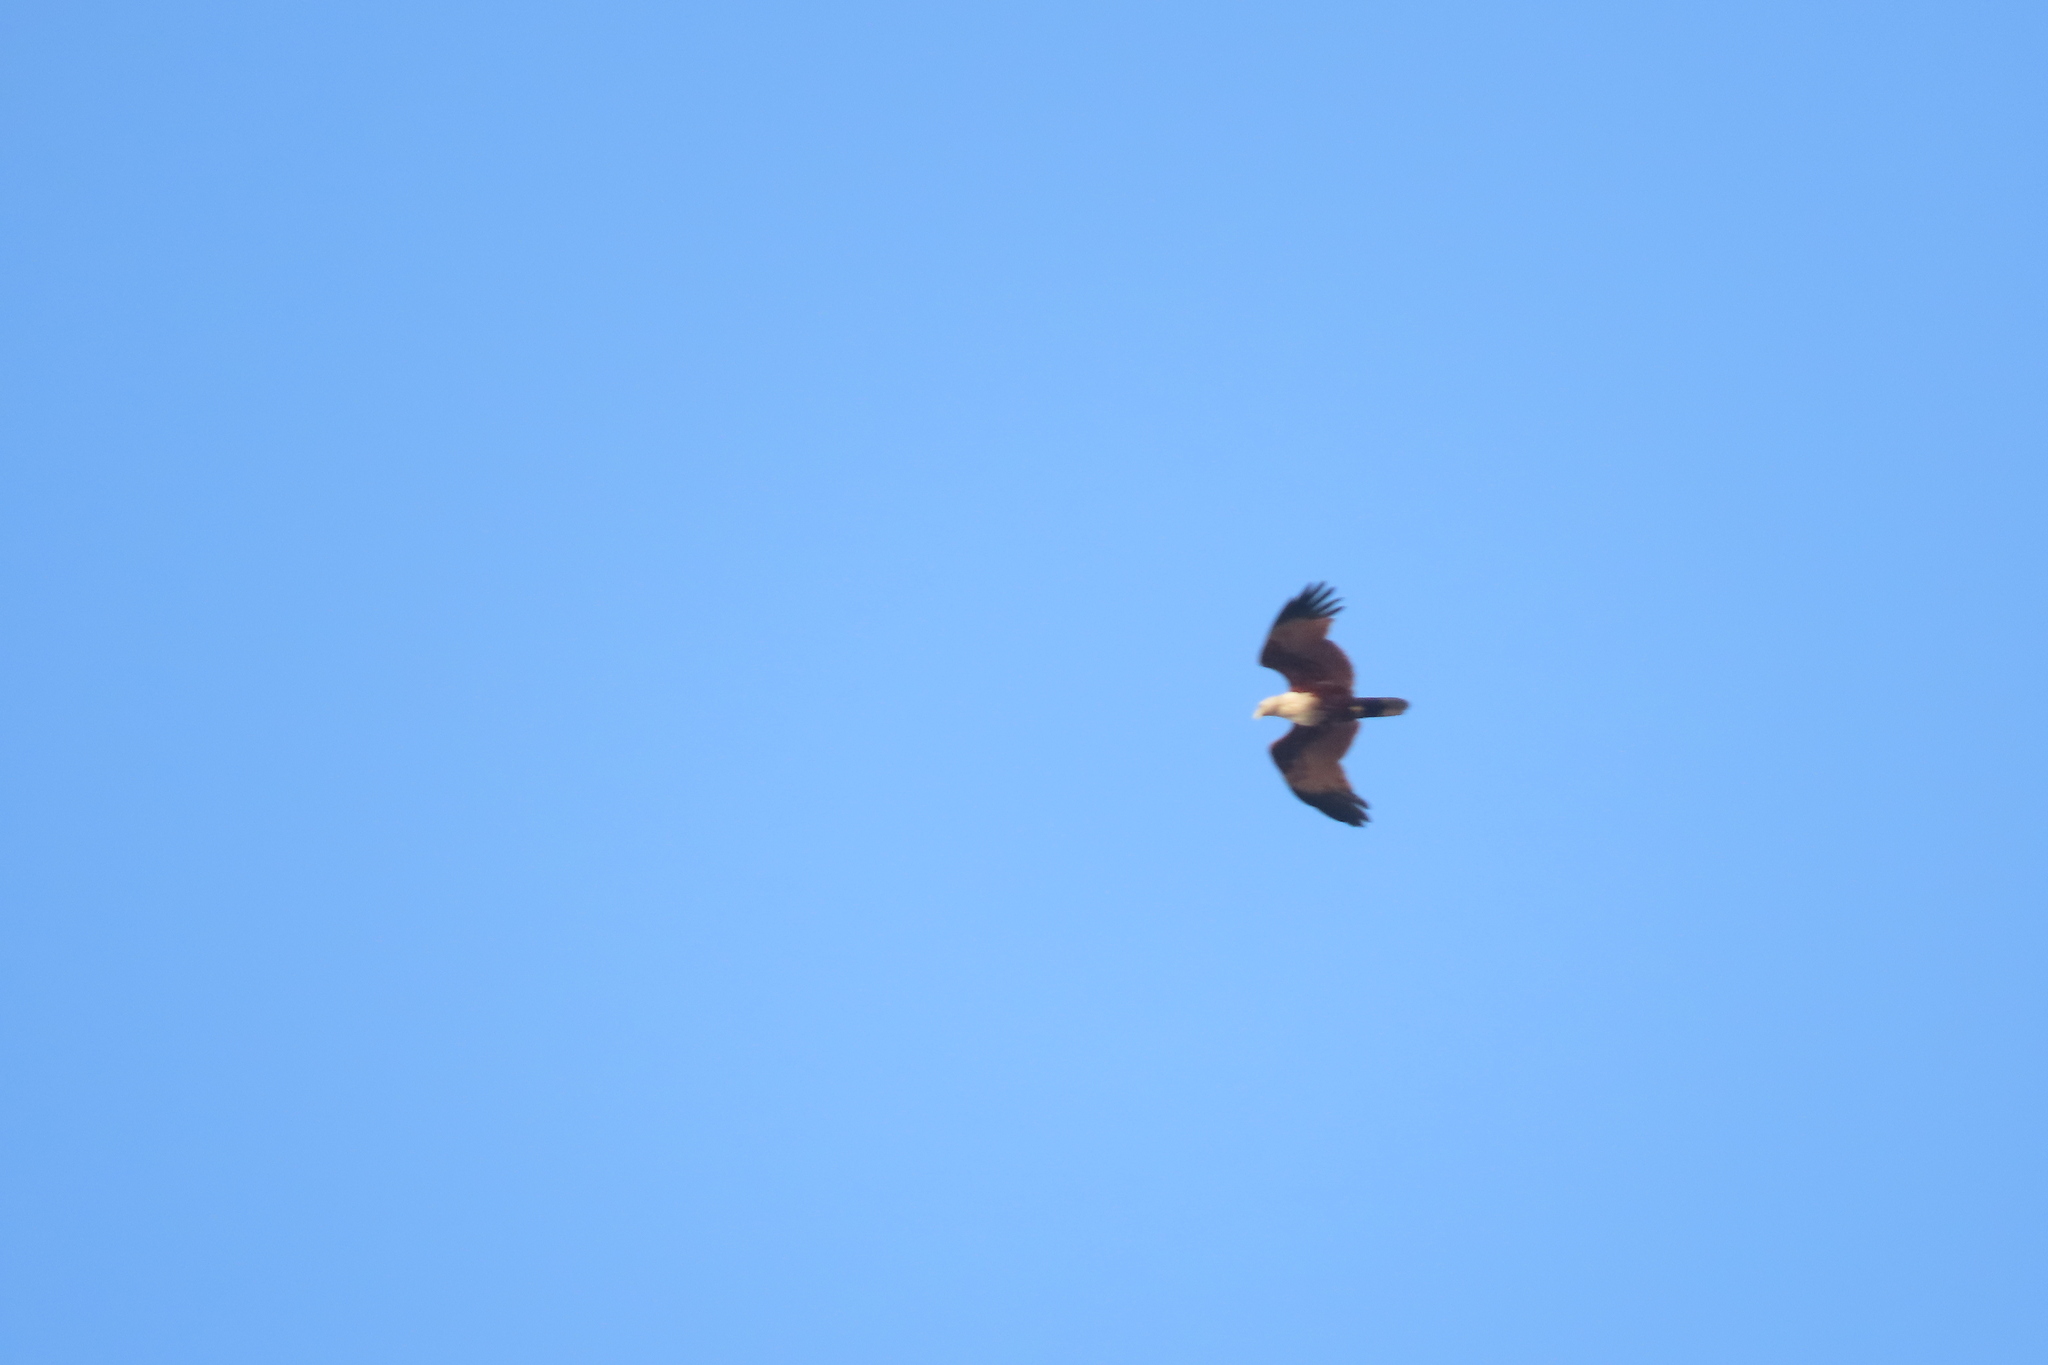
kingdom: Animalia
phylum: Chordata
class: Aves
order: Accipitriformes
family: Accipitridae
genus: Haliastur
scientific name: Haliastur indus
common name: Brahminy kite
